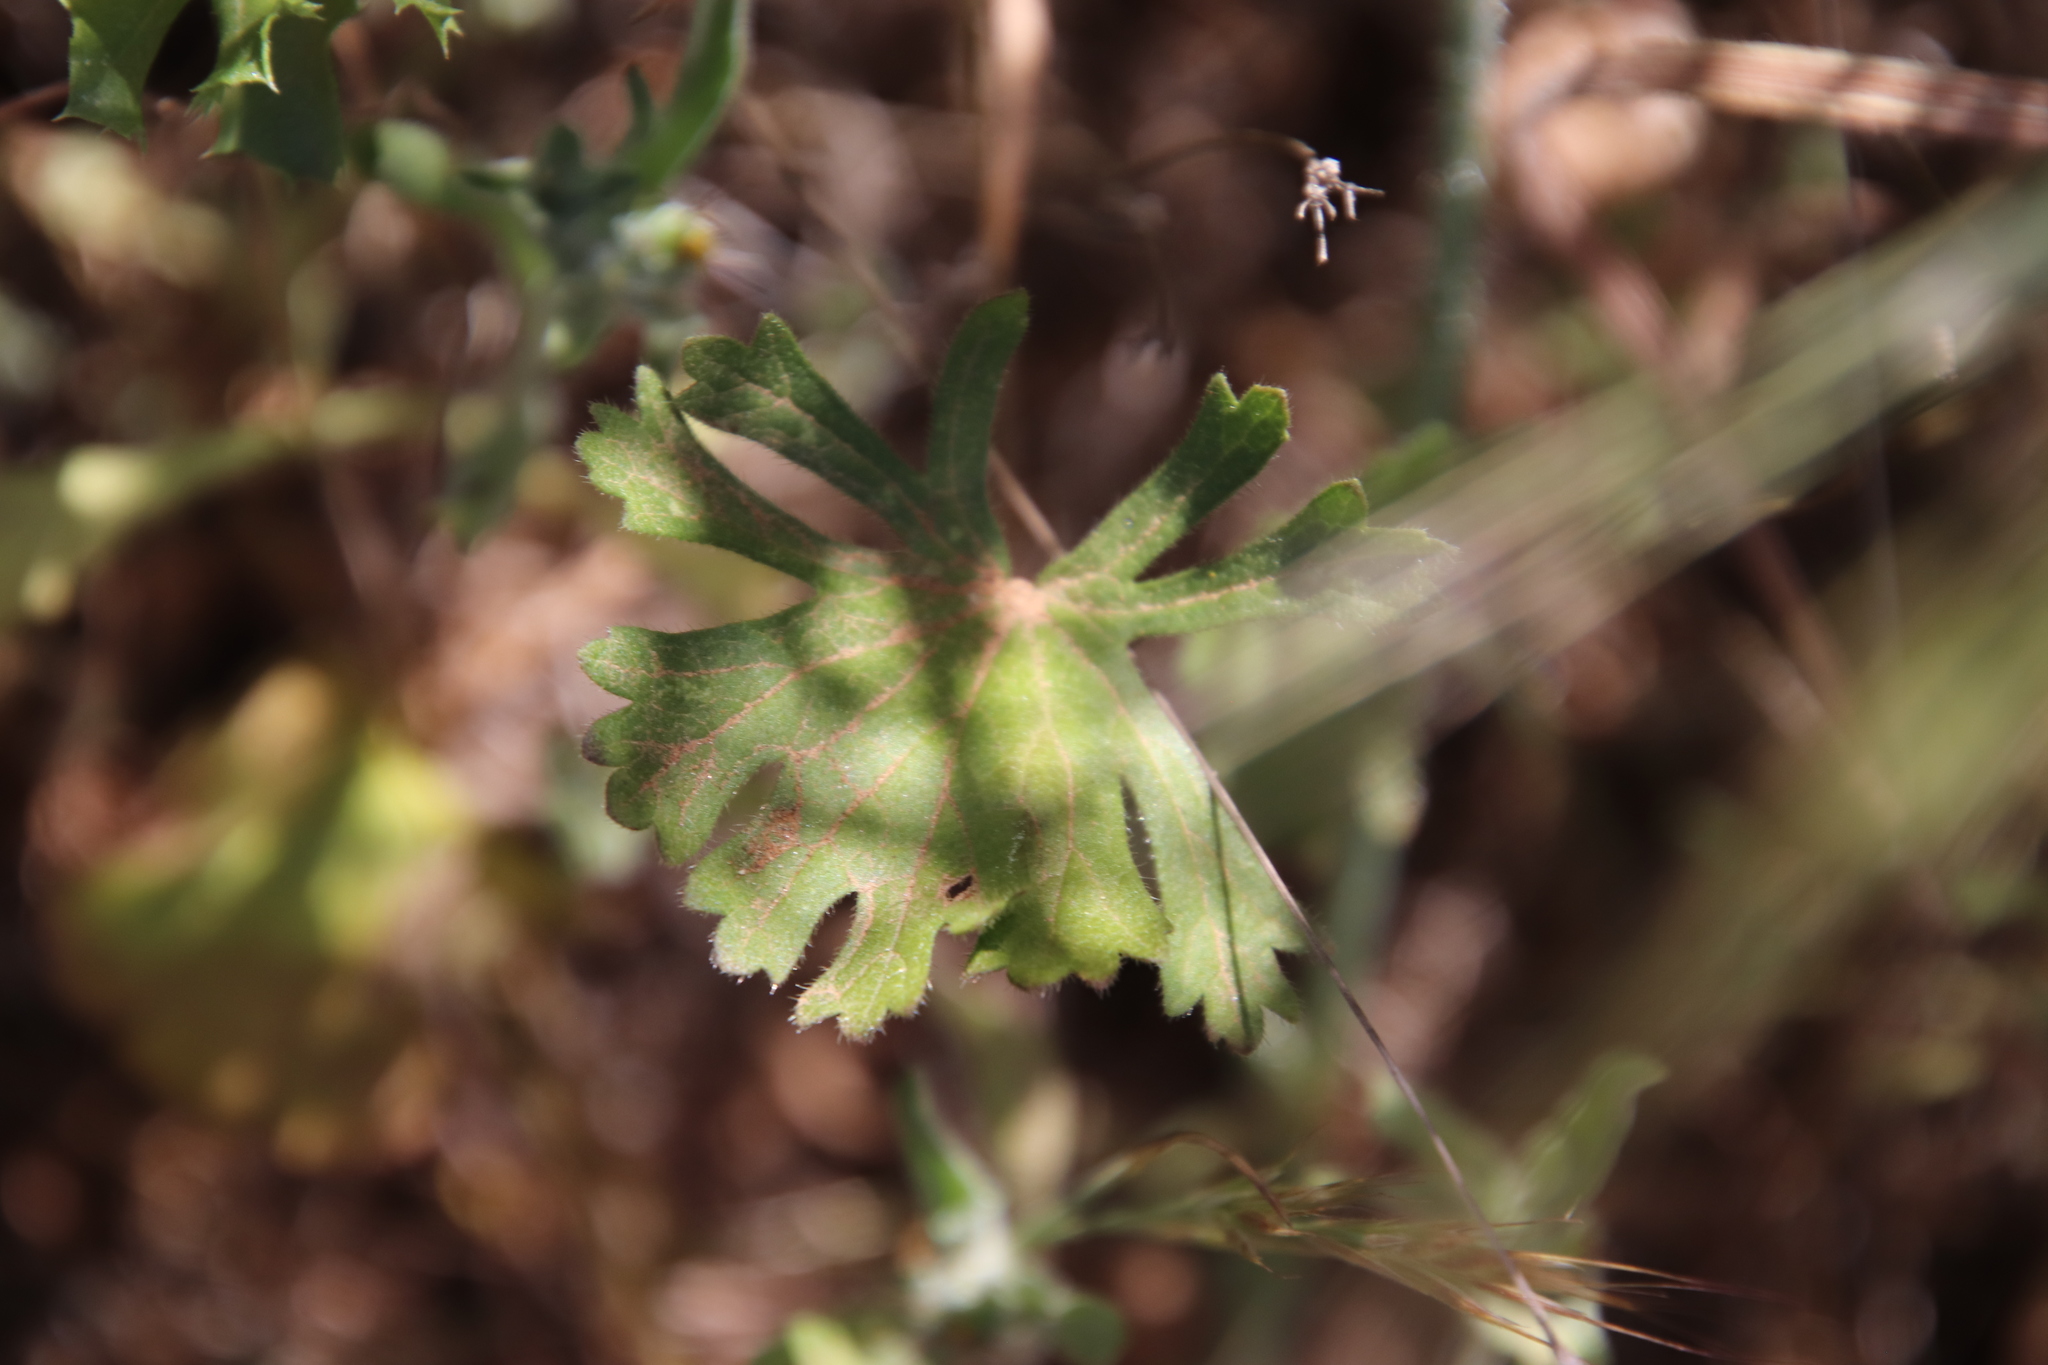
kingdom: Plantae
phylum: Tracheophyta
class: Magnoliopsida
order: Malvales
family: Malvaceae
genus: Sidalcea
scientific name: Sidalcea sparsifolia
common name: Southern checkerbloom
